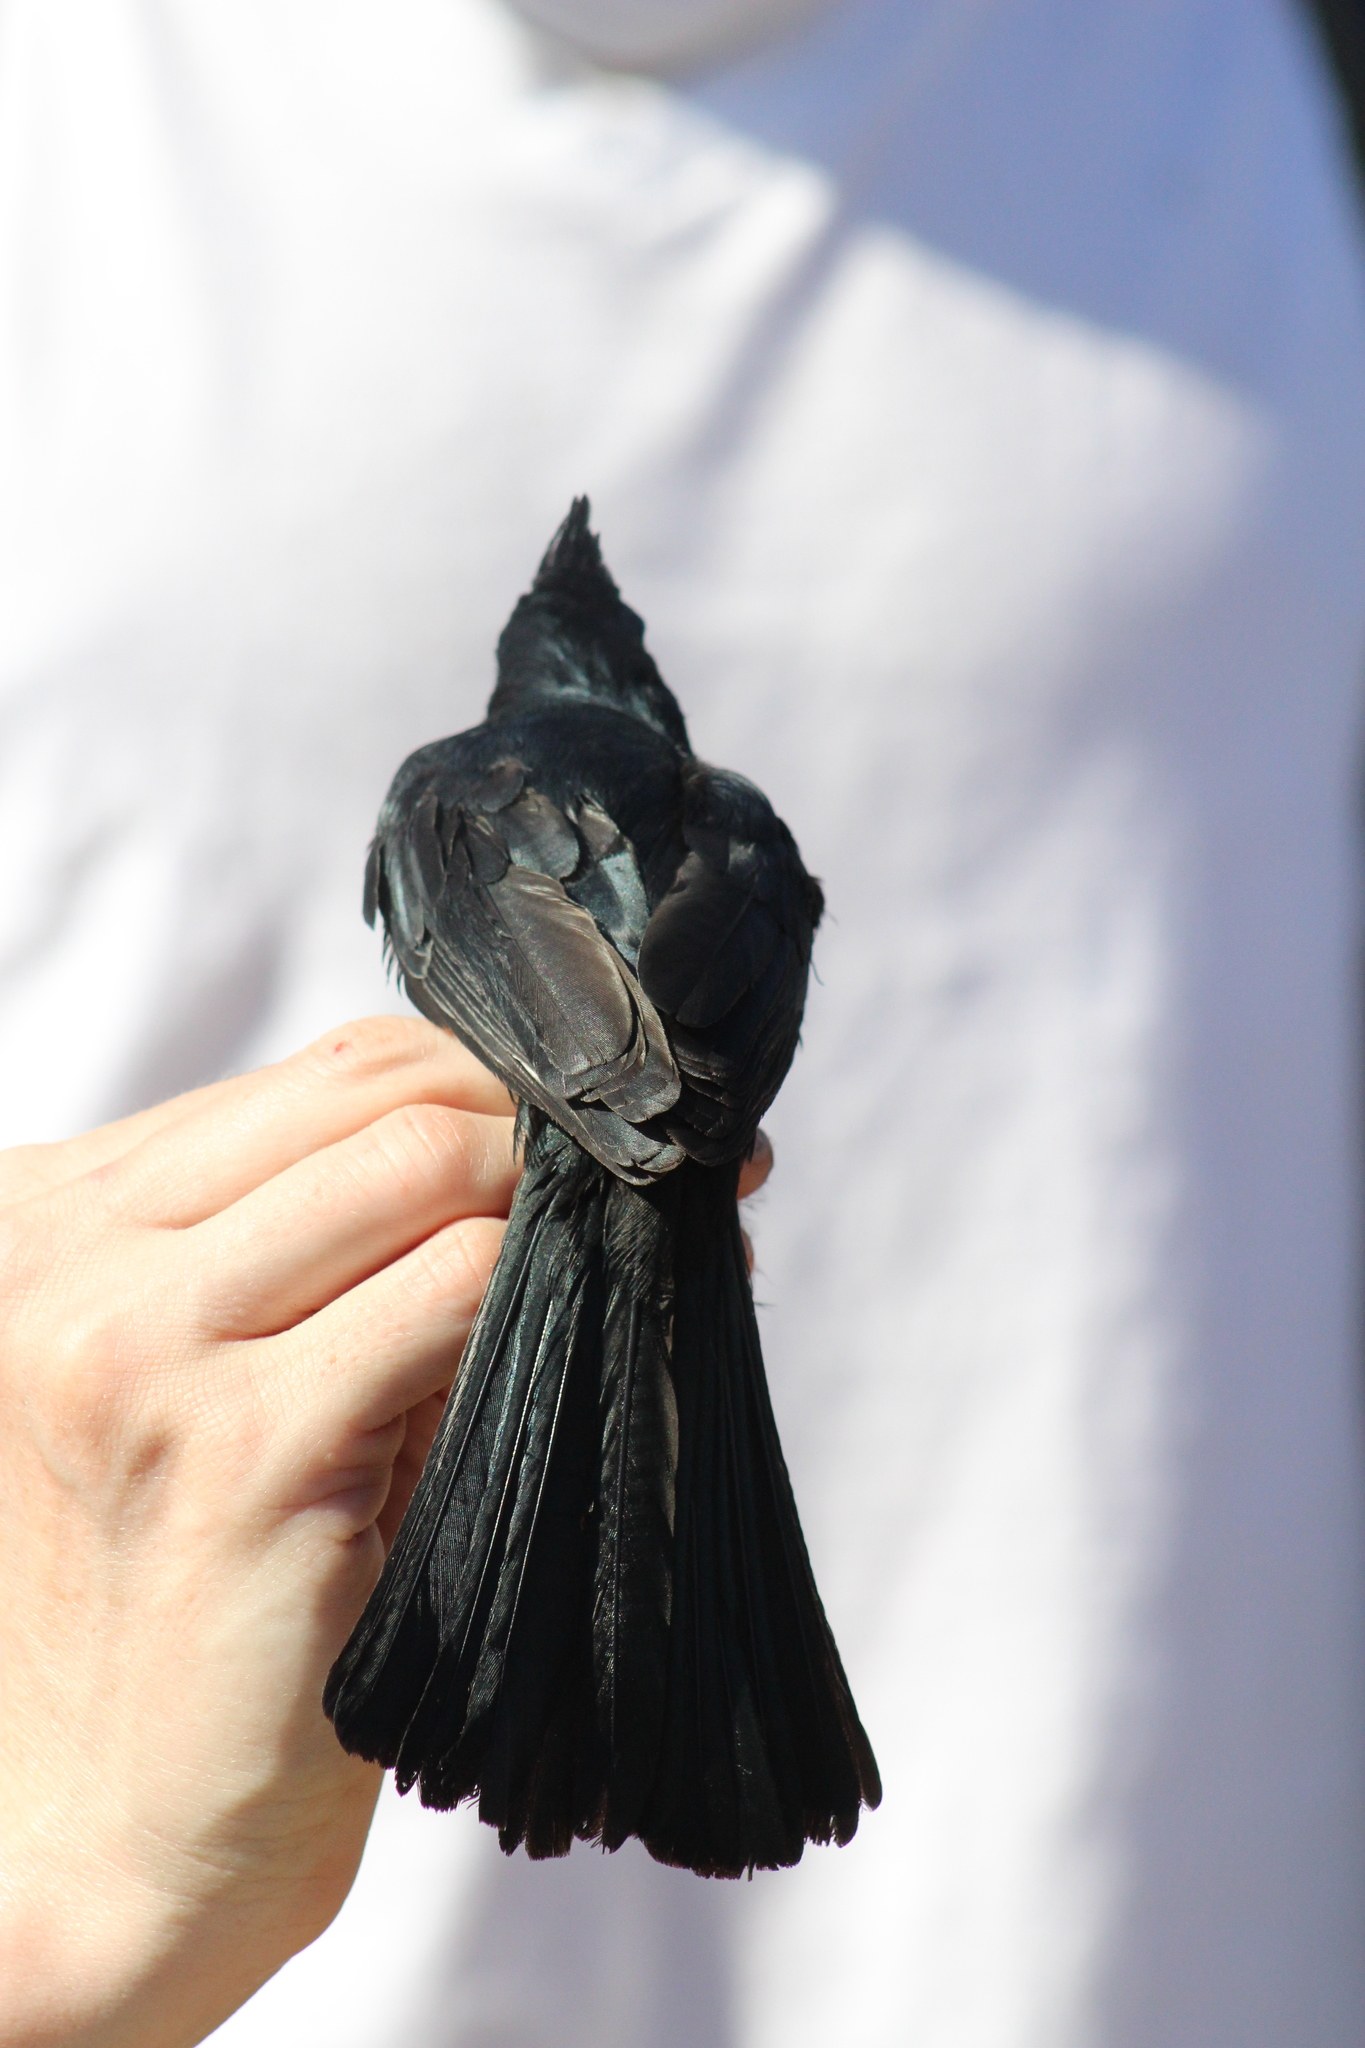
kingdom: Animalia
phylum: Chordata
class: Aves
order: Passeriformes
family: Ptilogonatidae
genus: Phainopepla
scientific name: Phainopepla nitens
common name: Phainopepla
